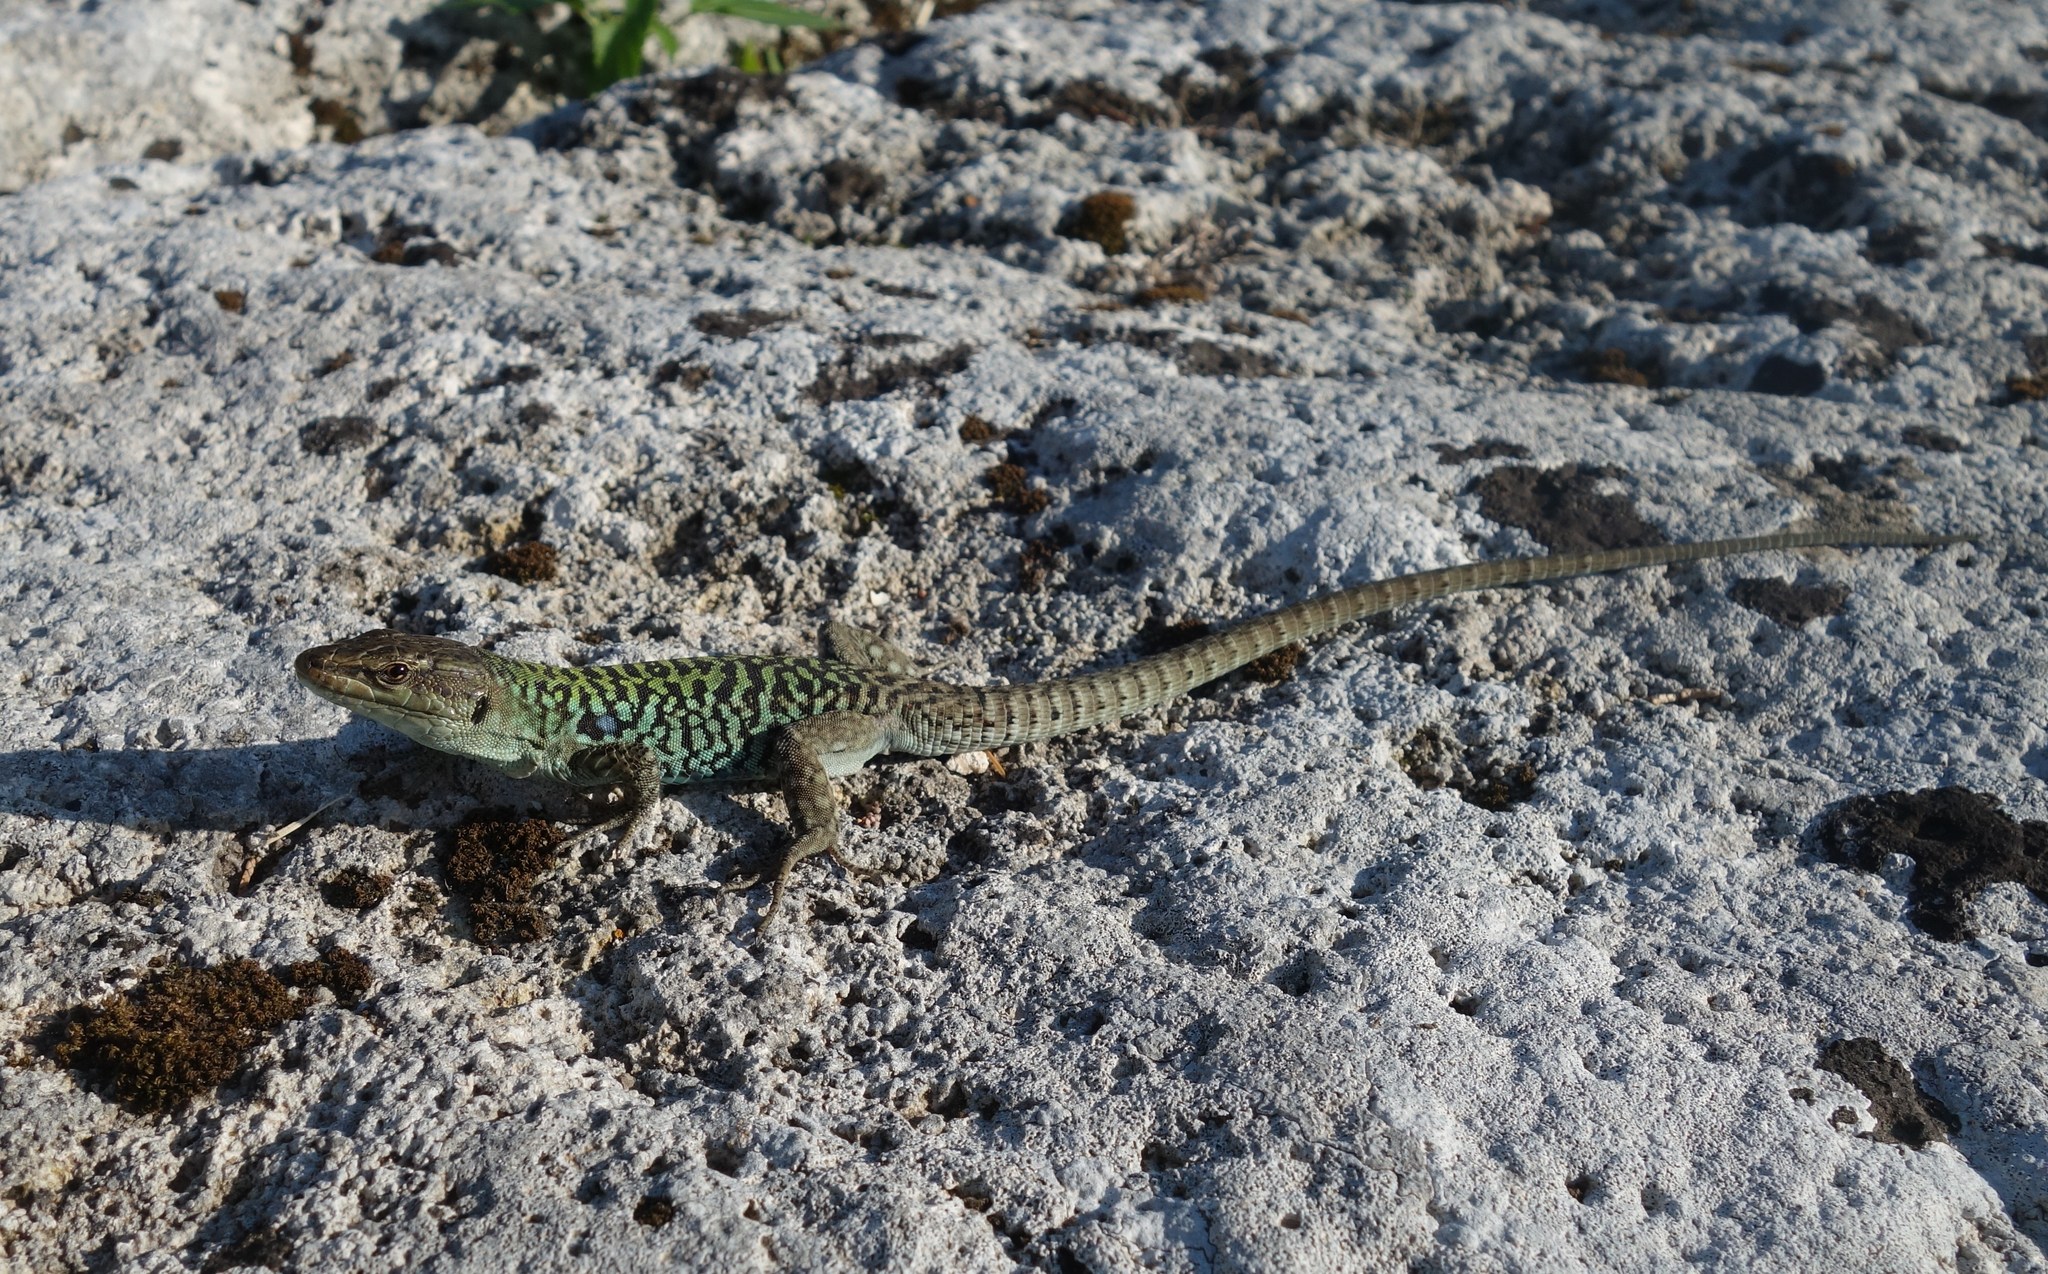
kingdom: Animalia
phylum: Chordata
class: Squamata
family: Lacertidae
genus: Podarcis
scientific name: Podarcis siculus
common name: Italian wall lizard
